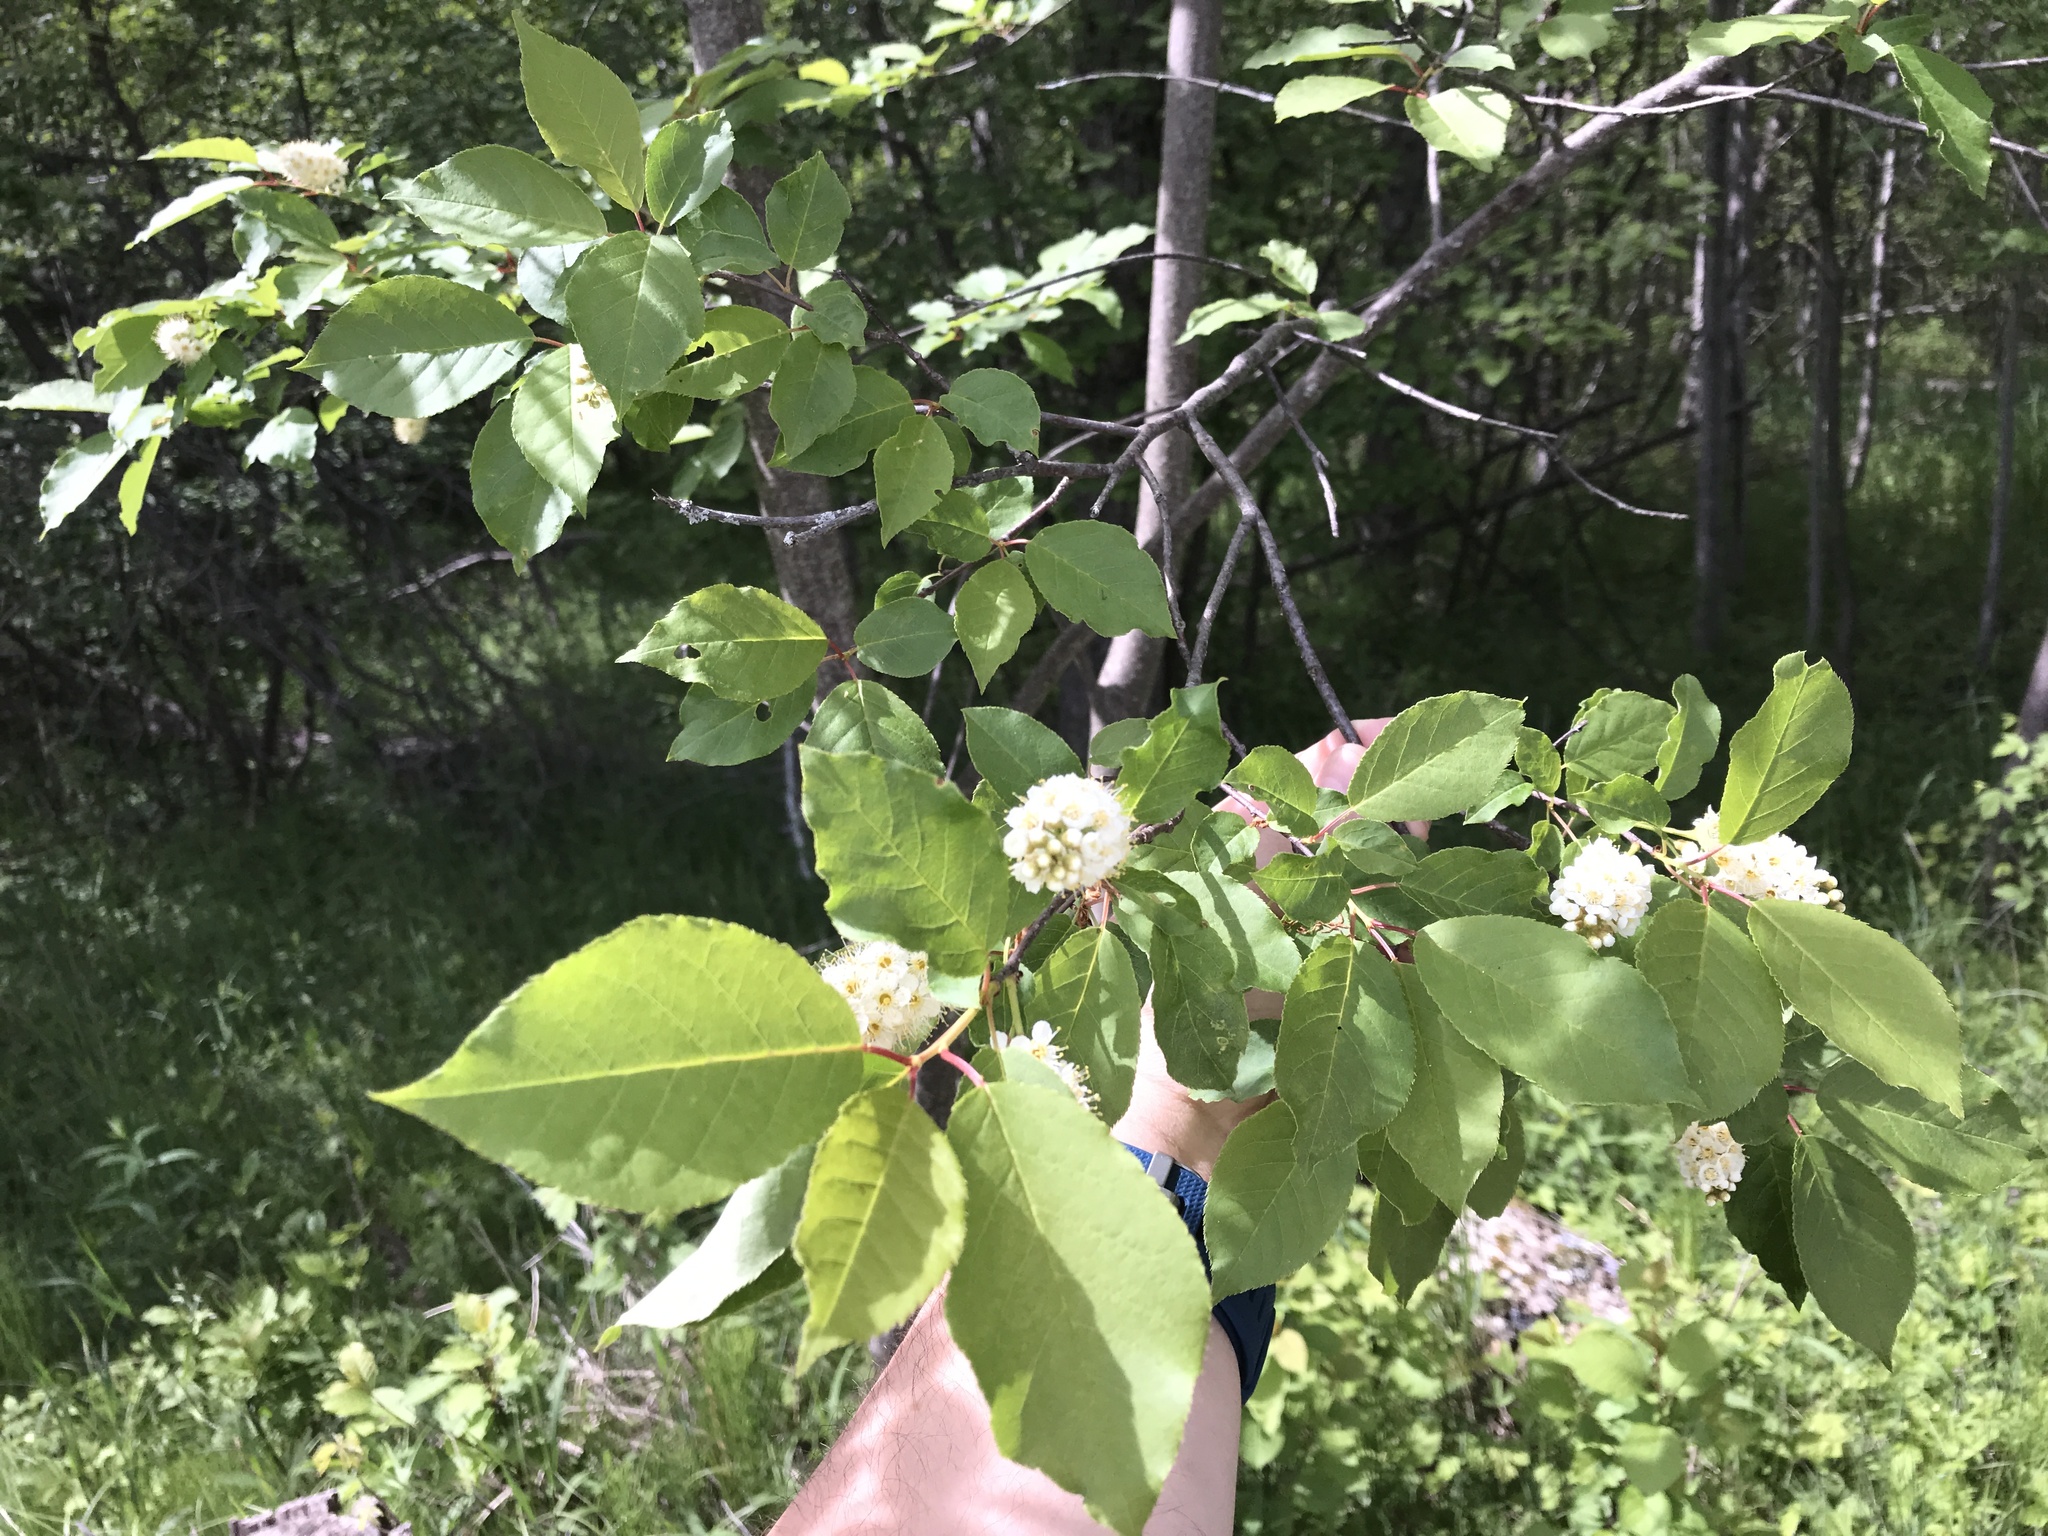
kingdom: Plantae
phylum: Tracheophyta
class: Magnoliopsida
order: Rosales
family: Rosaceae
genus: Prunus
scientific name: Prunus virginiana
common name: Chokecherry
